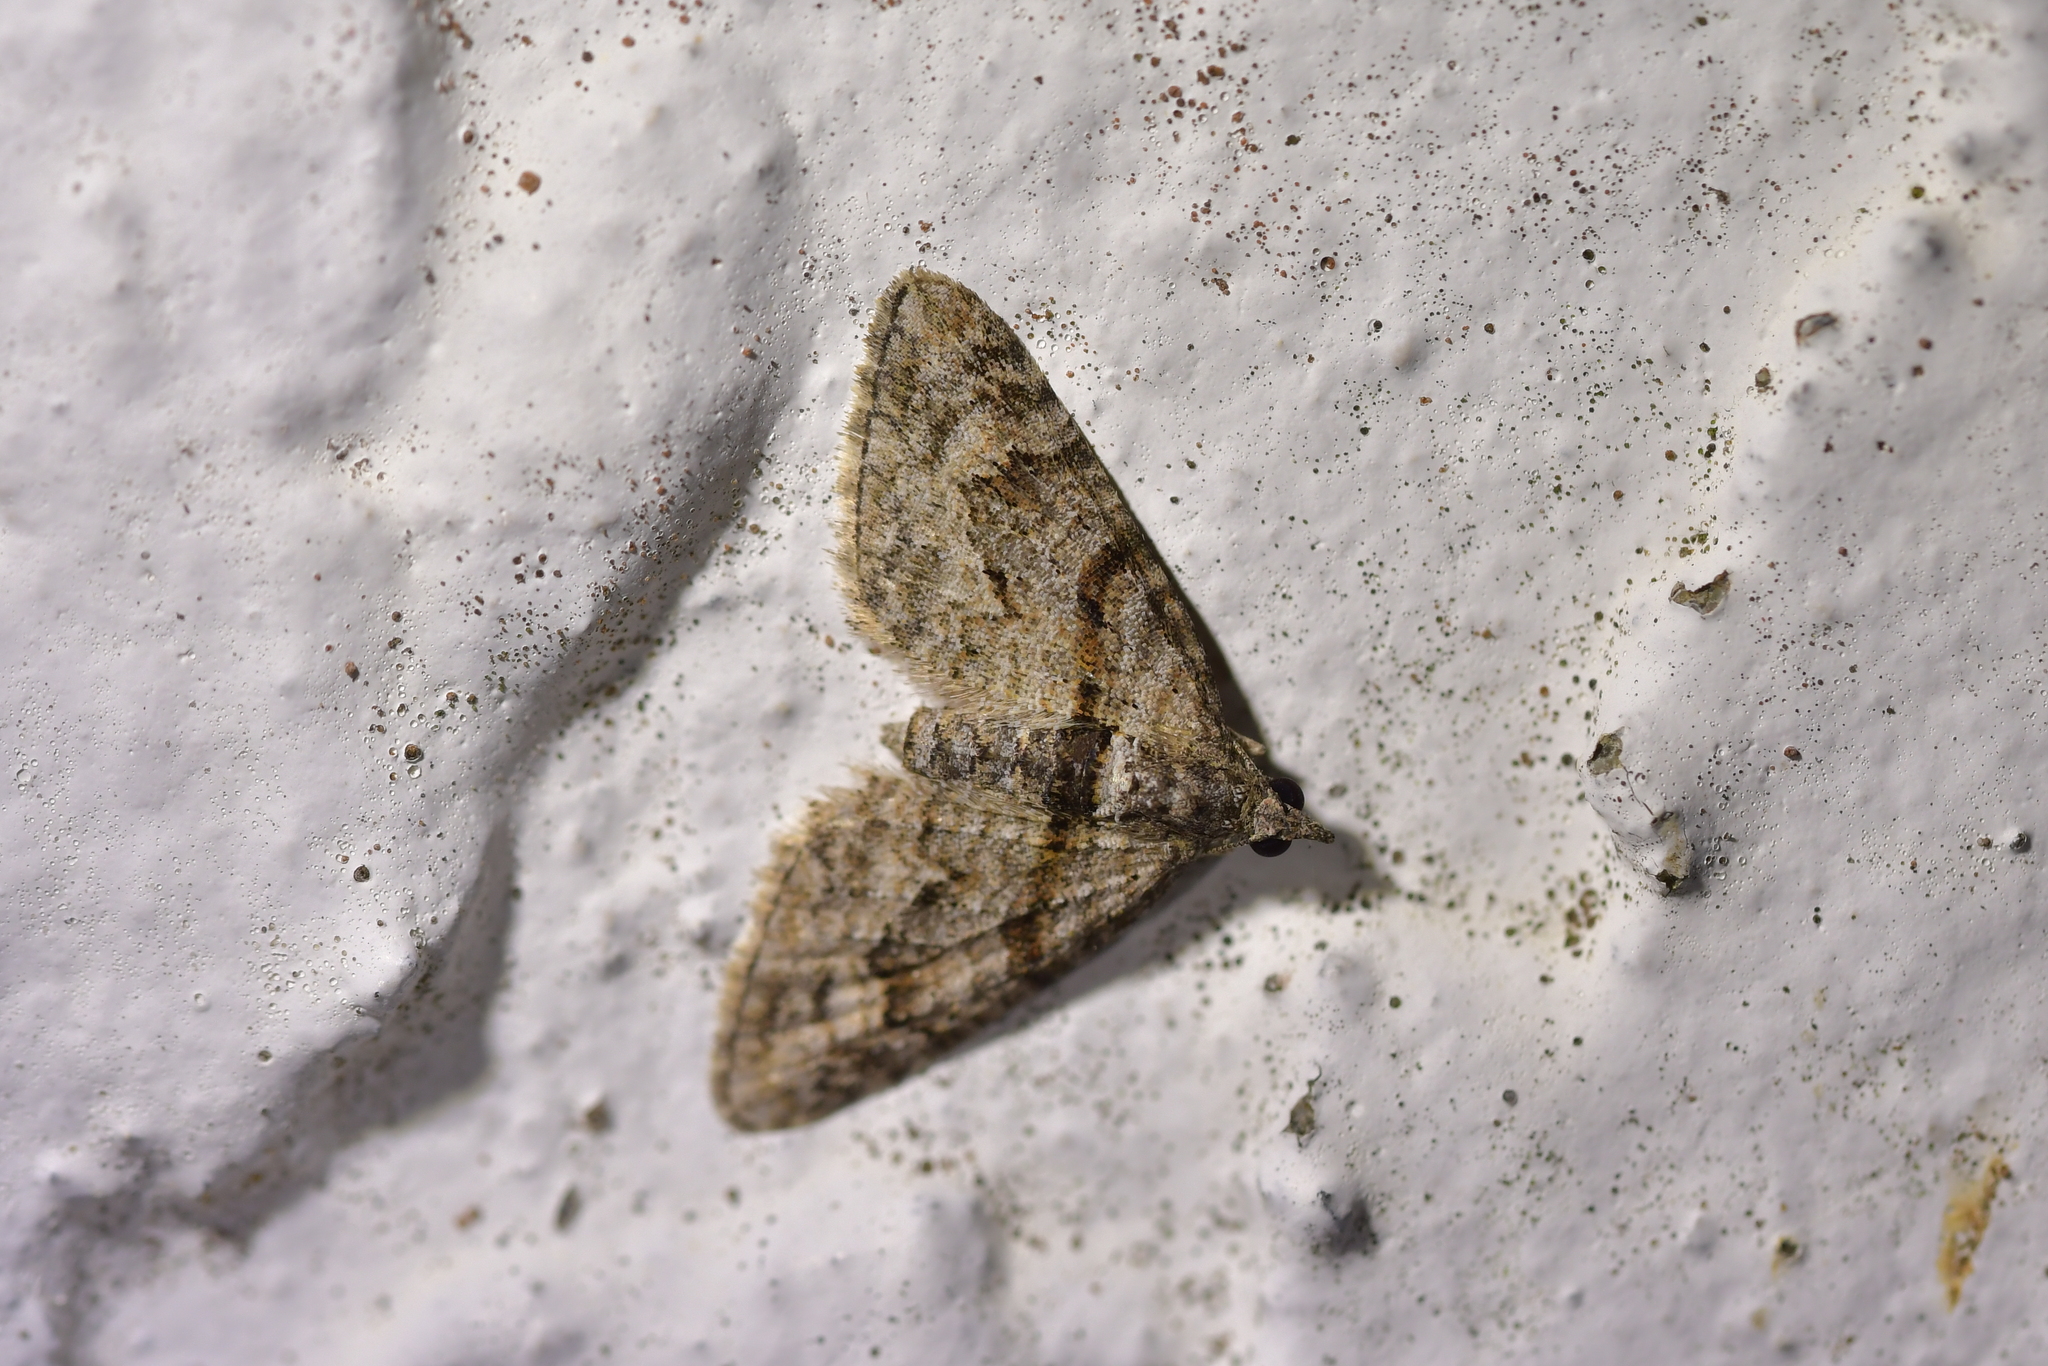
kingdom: Animalia
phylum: Arthropoda
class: Insecta
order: Lepidoptera
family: Geometridae
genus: Phrissogonus
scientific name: Phrissogonus laticostata
